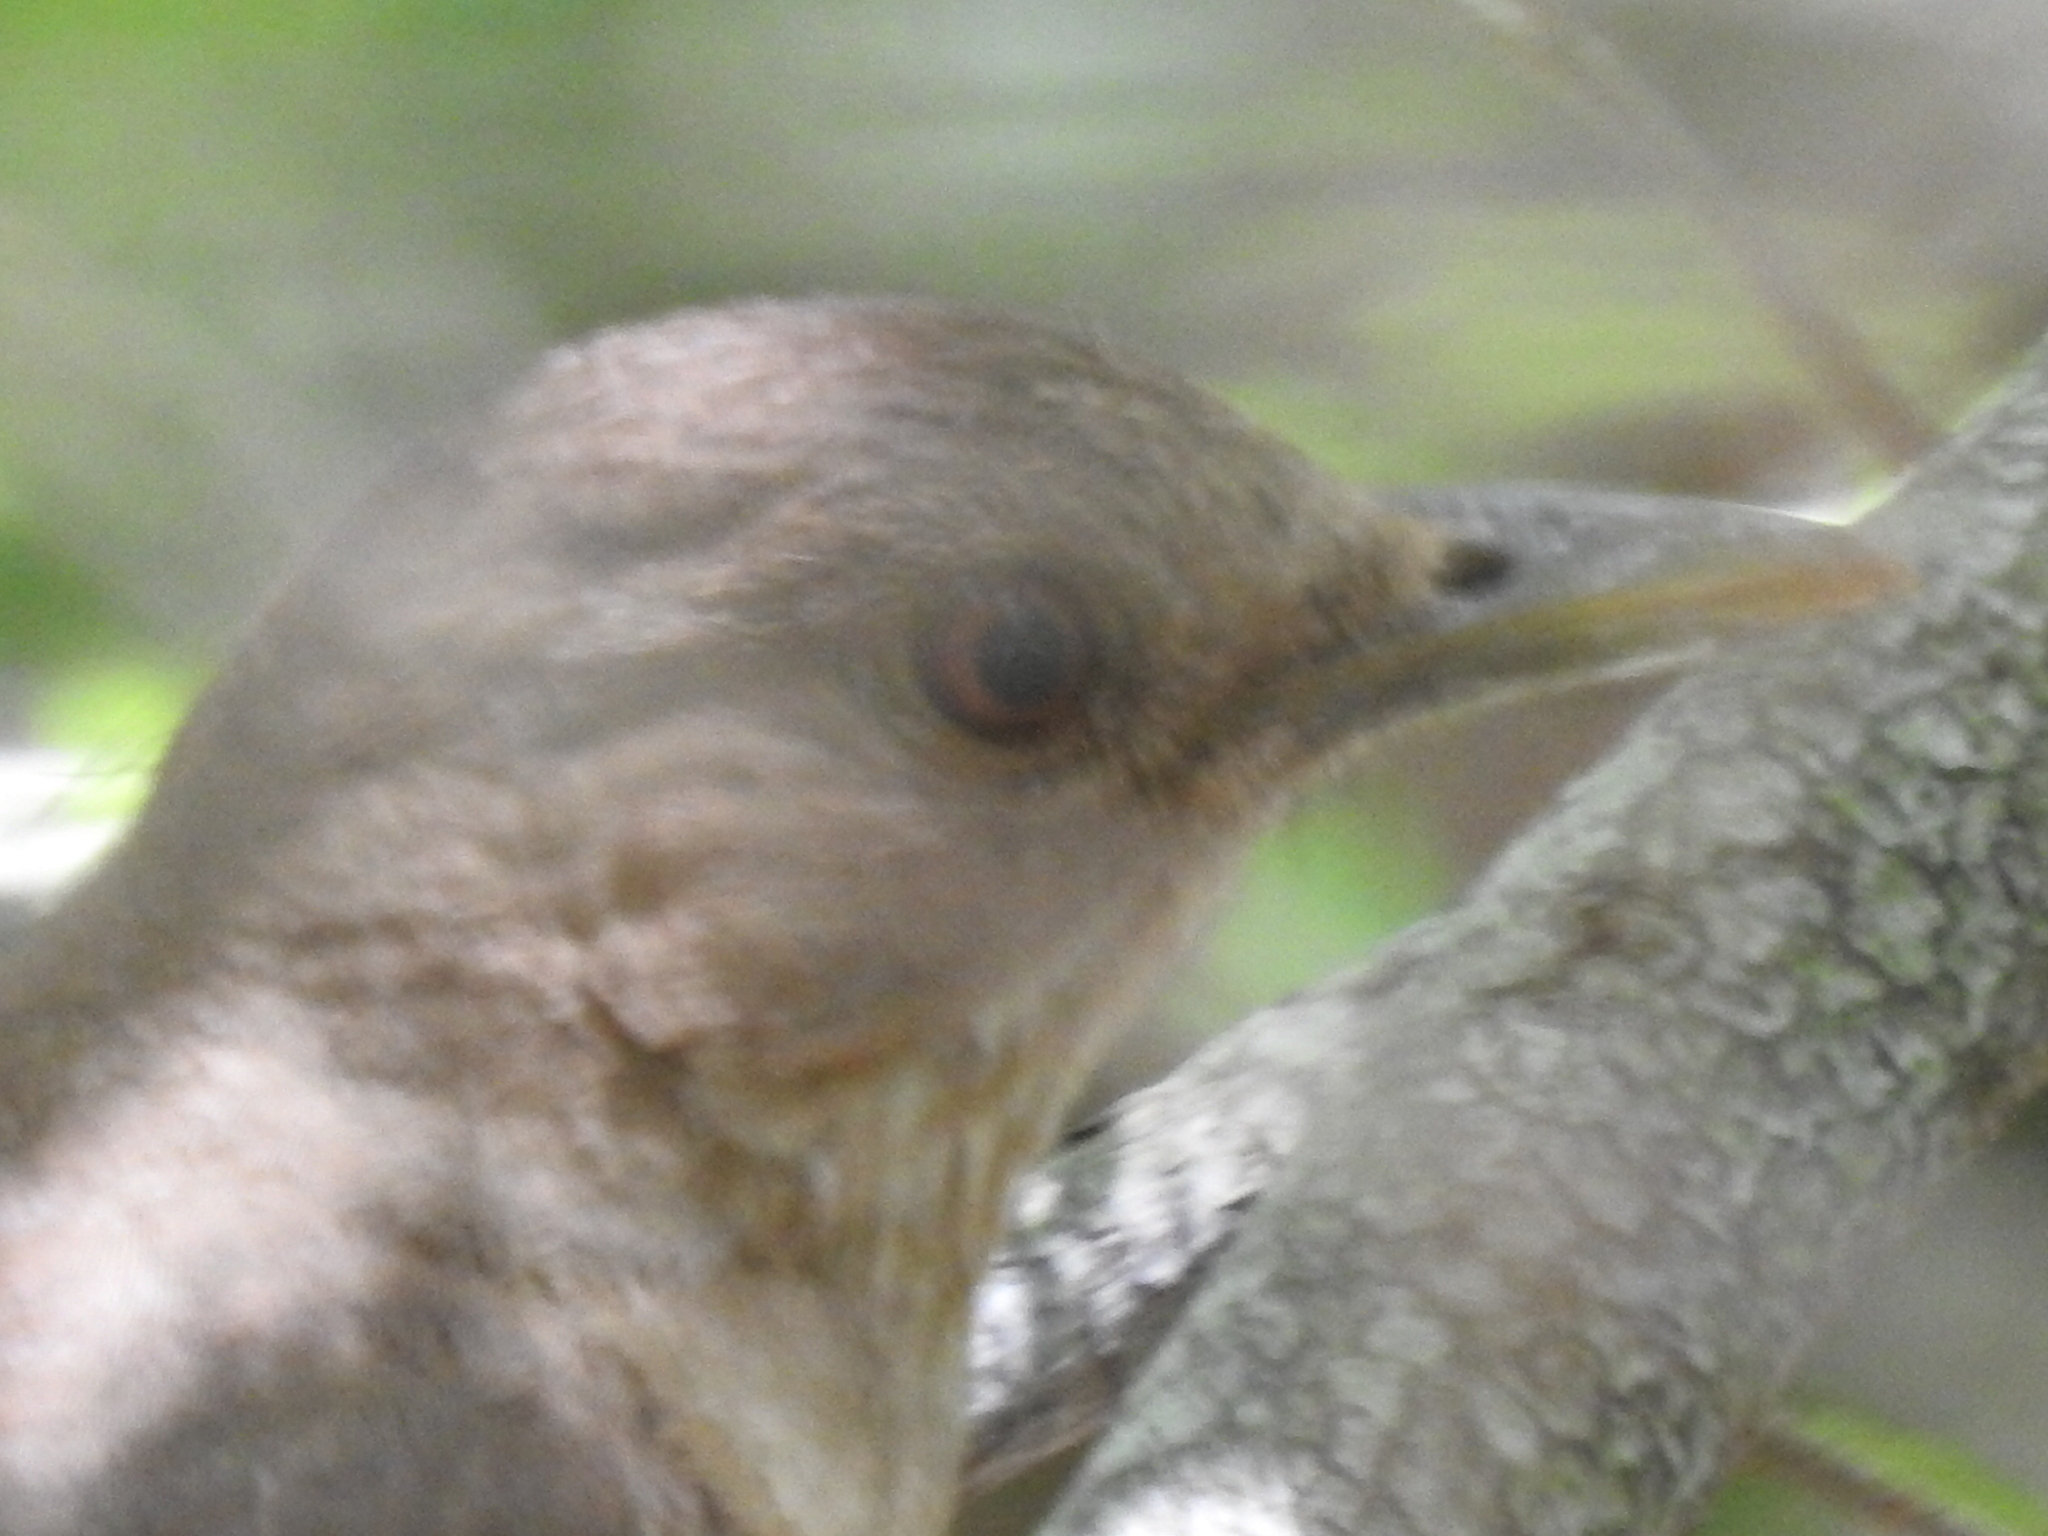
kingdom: Animalia
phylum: Chordata
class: Aves
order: Passeriformes
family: Turdidae
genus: Turdus
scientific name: Turdus grayi
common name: Clay-colored thrush
